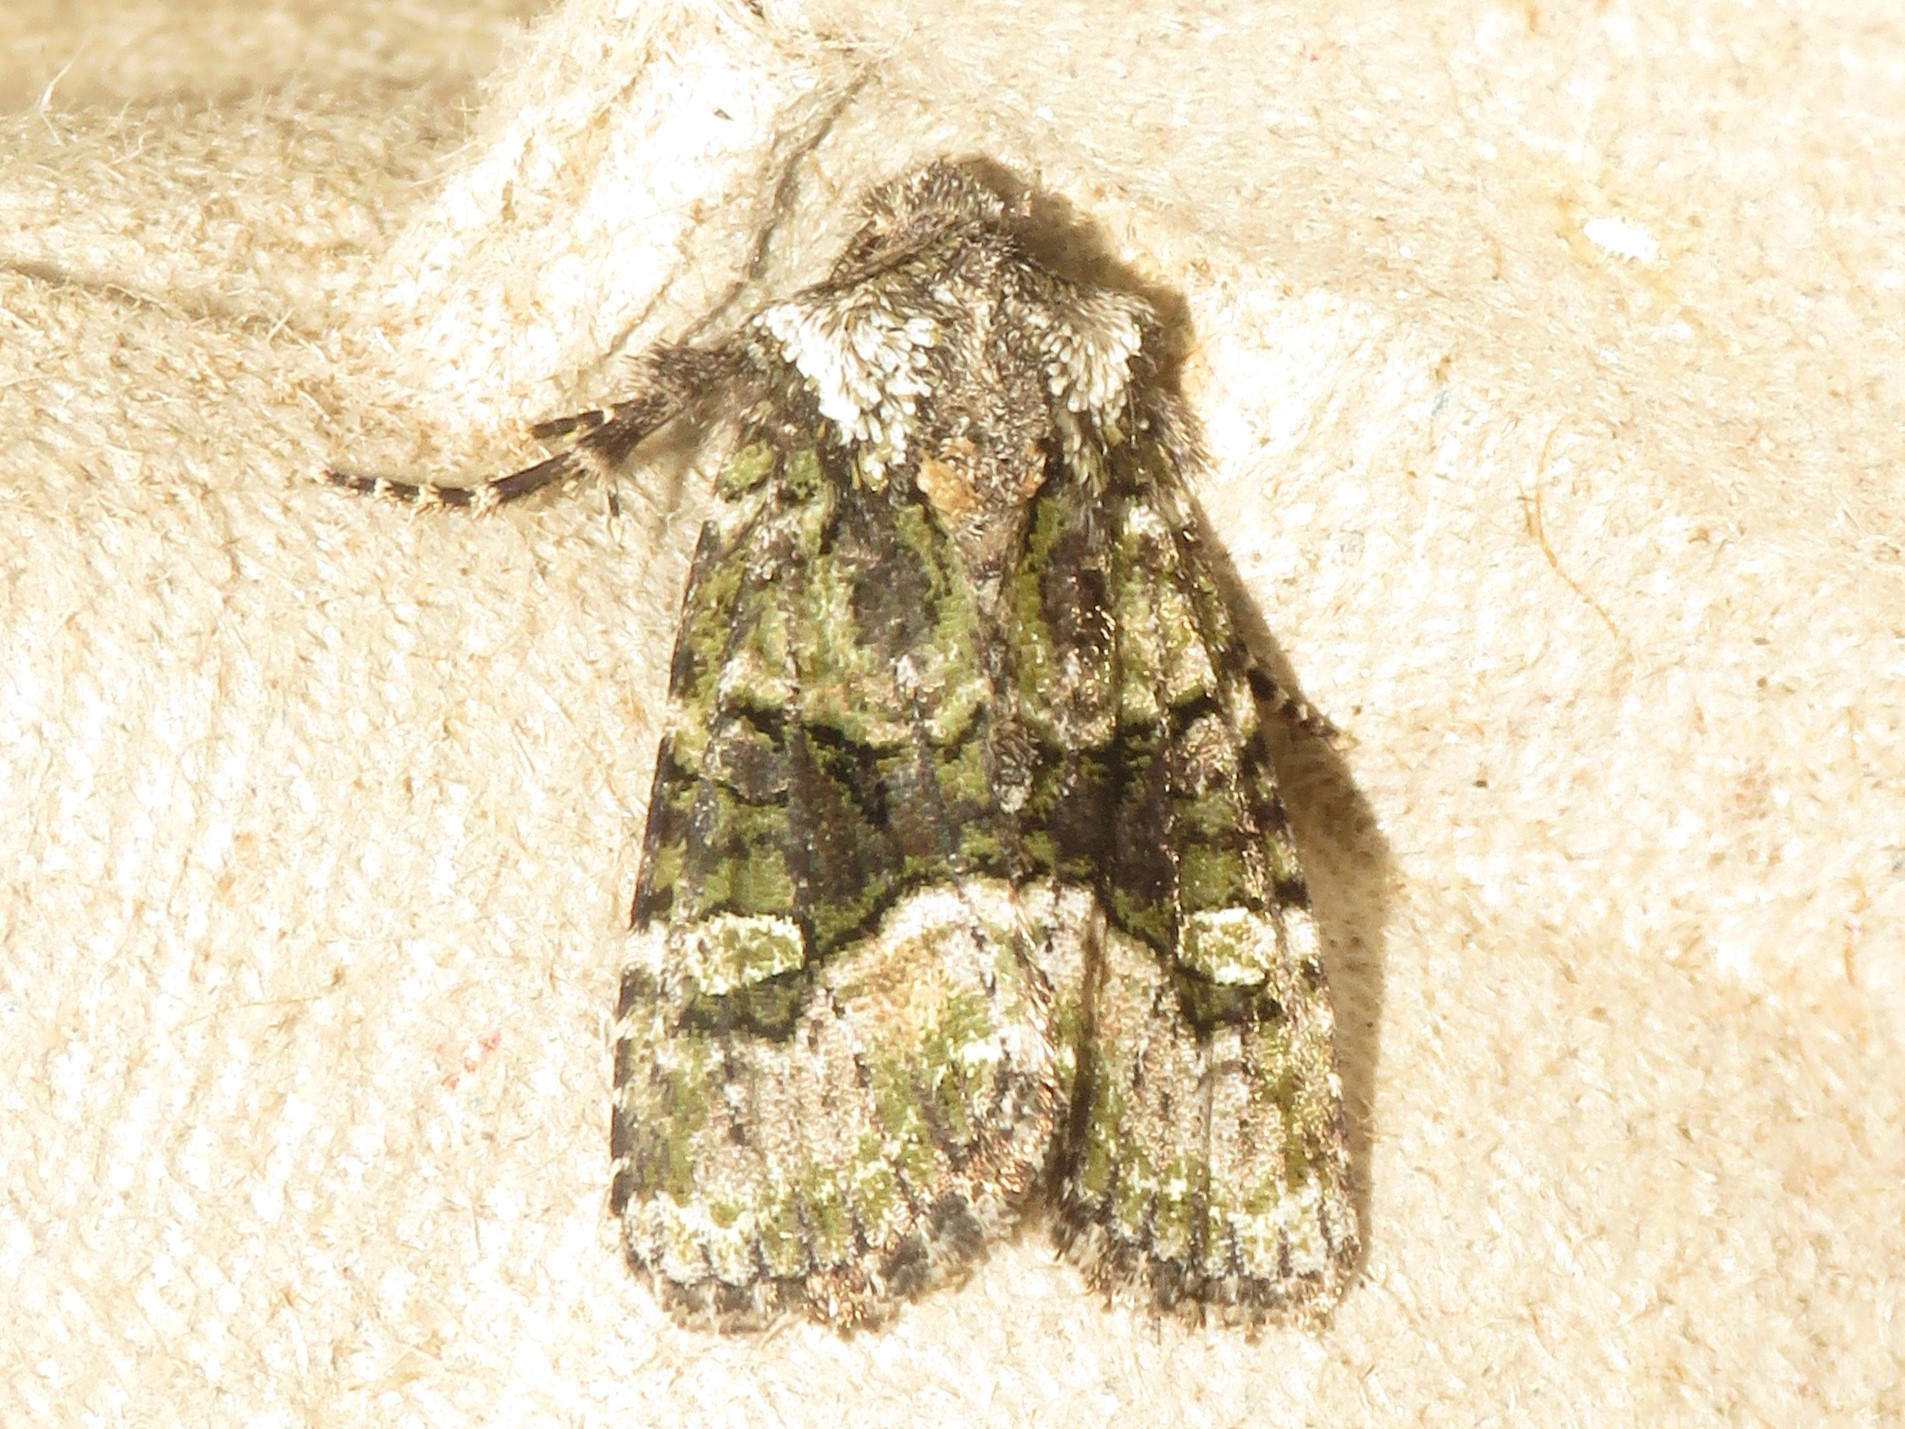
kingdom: Animalia
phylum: Arthropoda
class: Insecta
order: Lepidoptera
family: Noctuidae
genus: Lacinipolia
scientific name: Lacinipolia olivacea
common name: Olive arches moth
